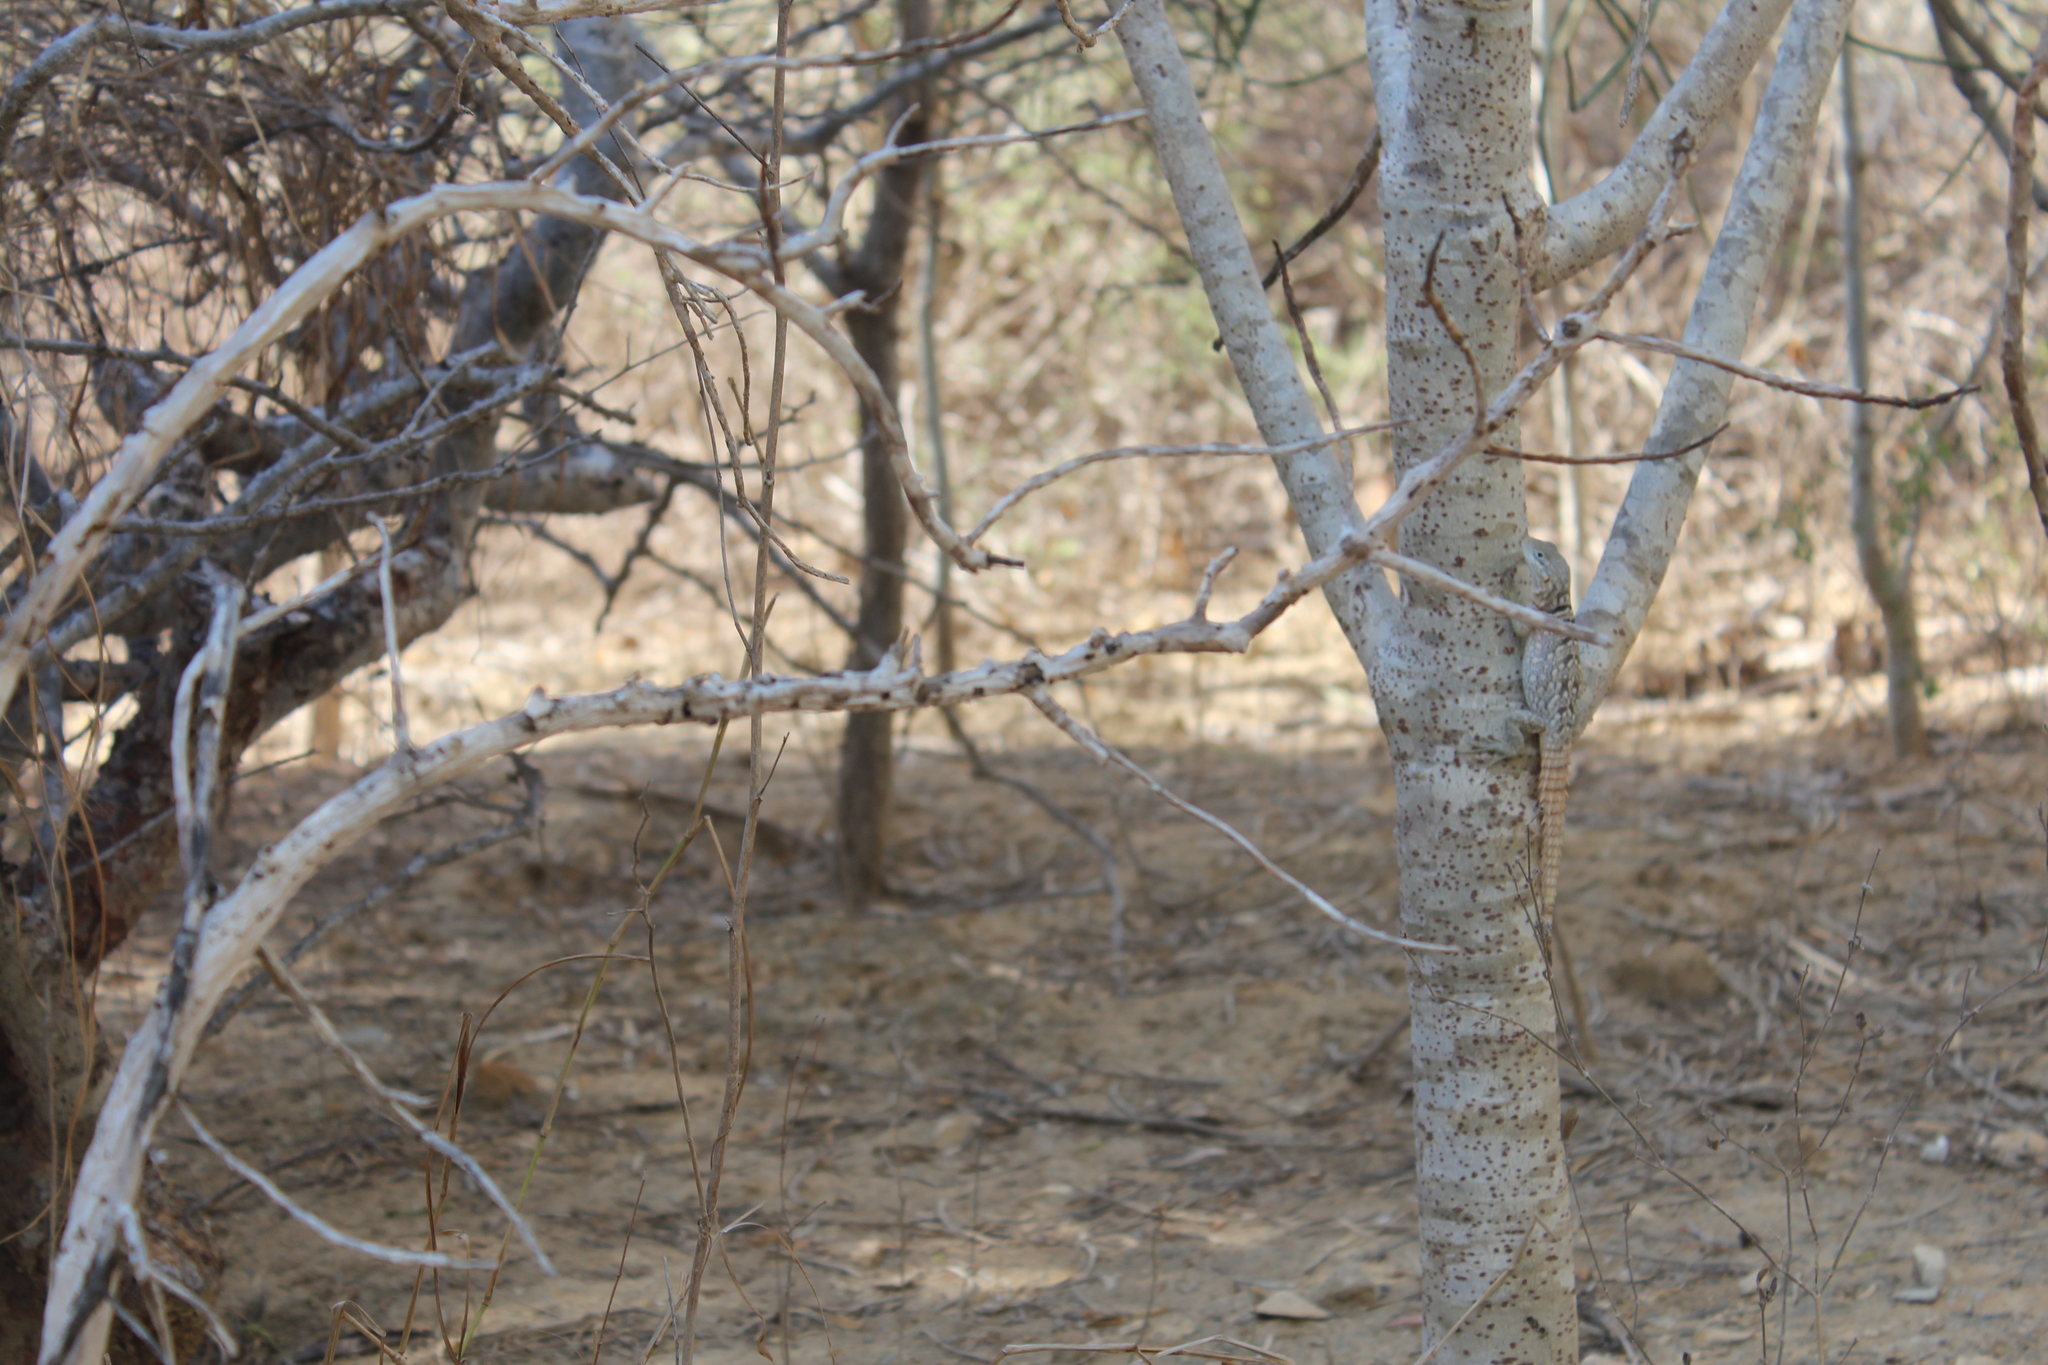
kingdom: Animalia
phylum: Chordata
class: Squamata
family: Opluridae
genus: Oplurus
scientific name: Oplurus cyclurus
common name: Merrem's madagascar swift
